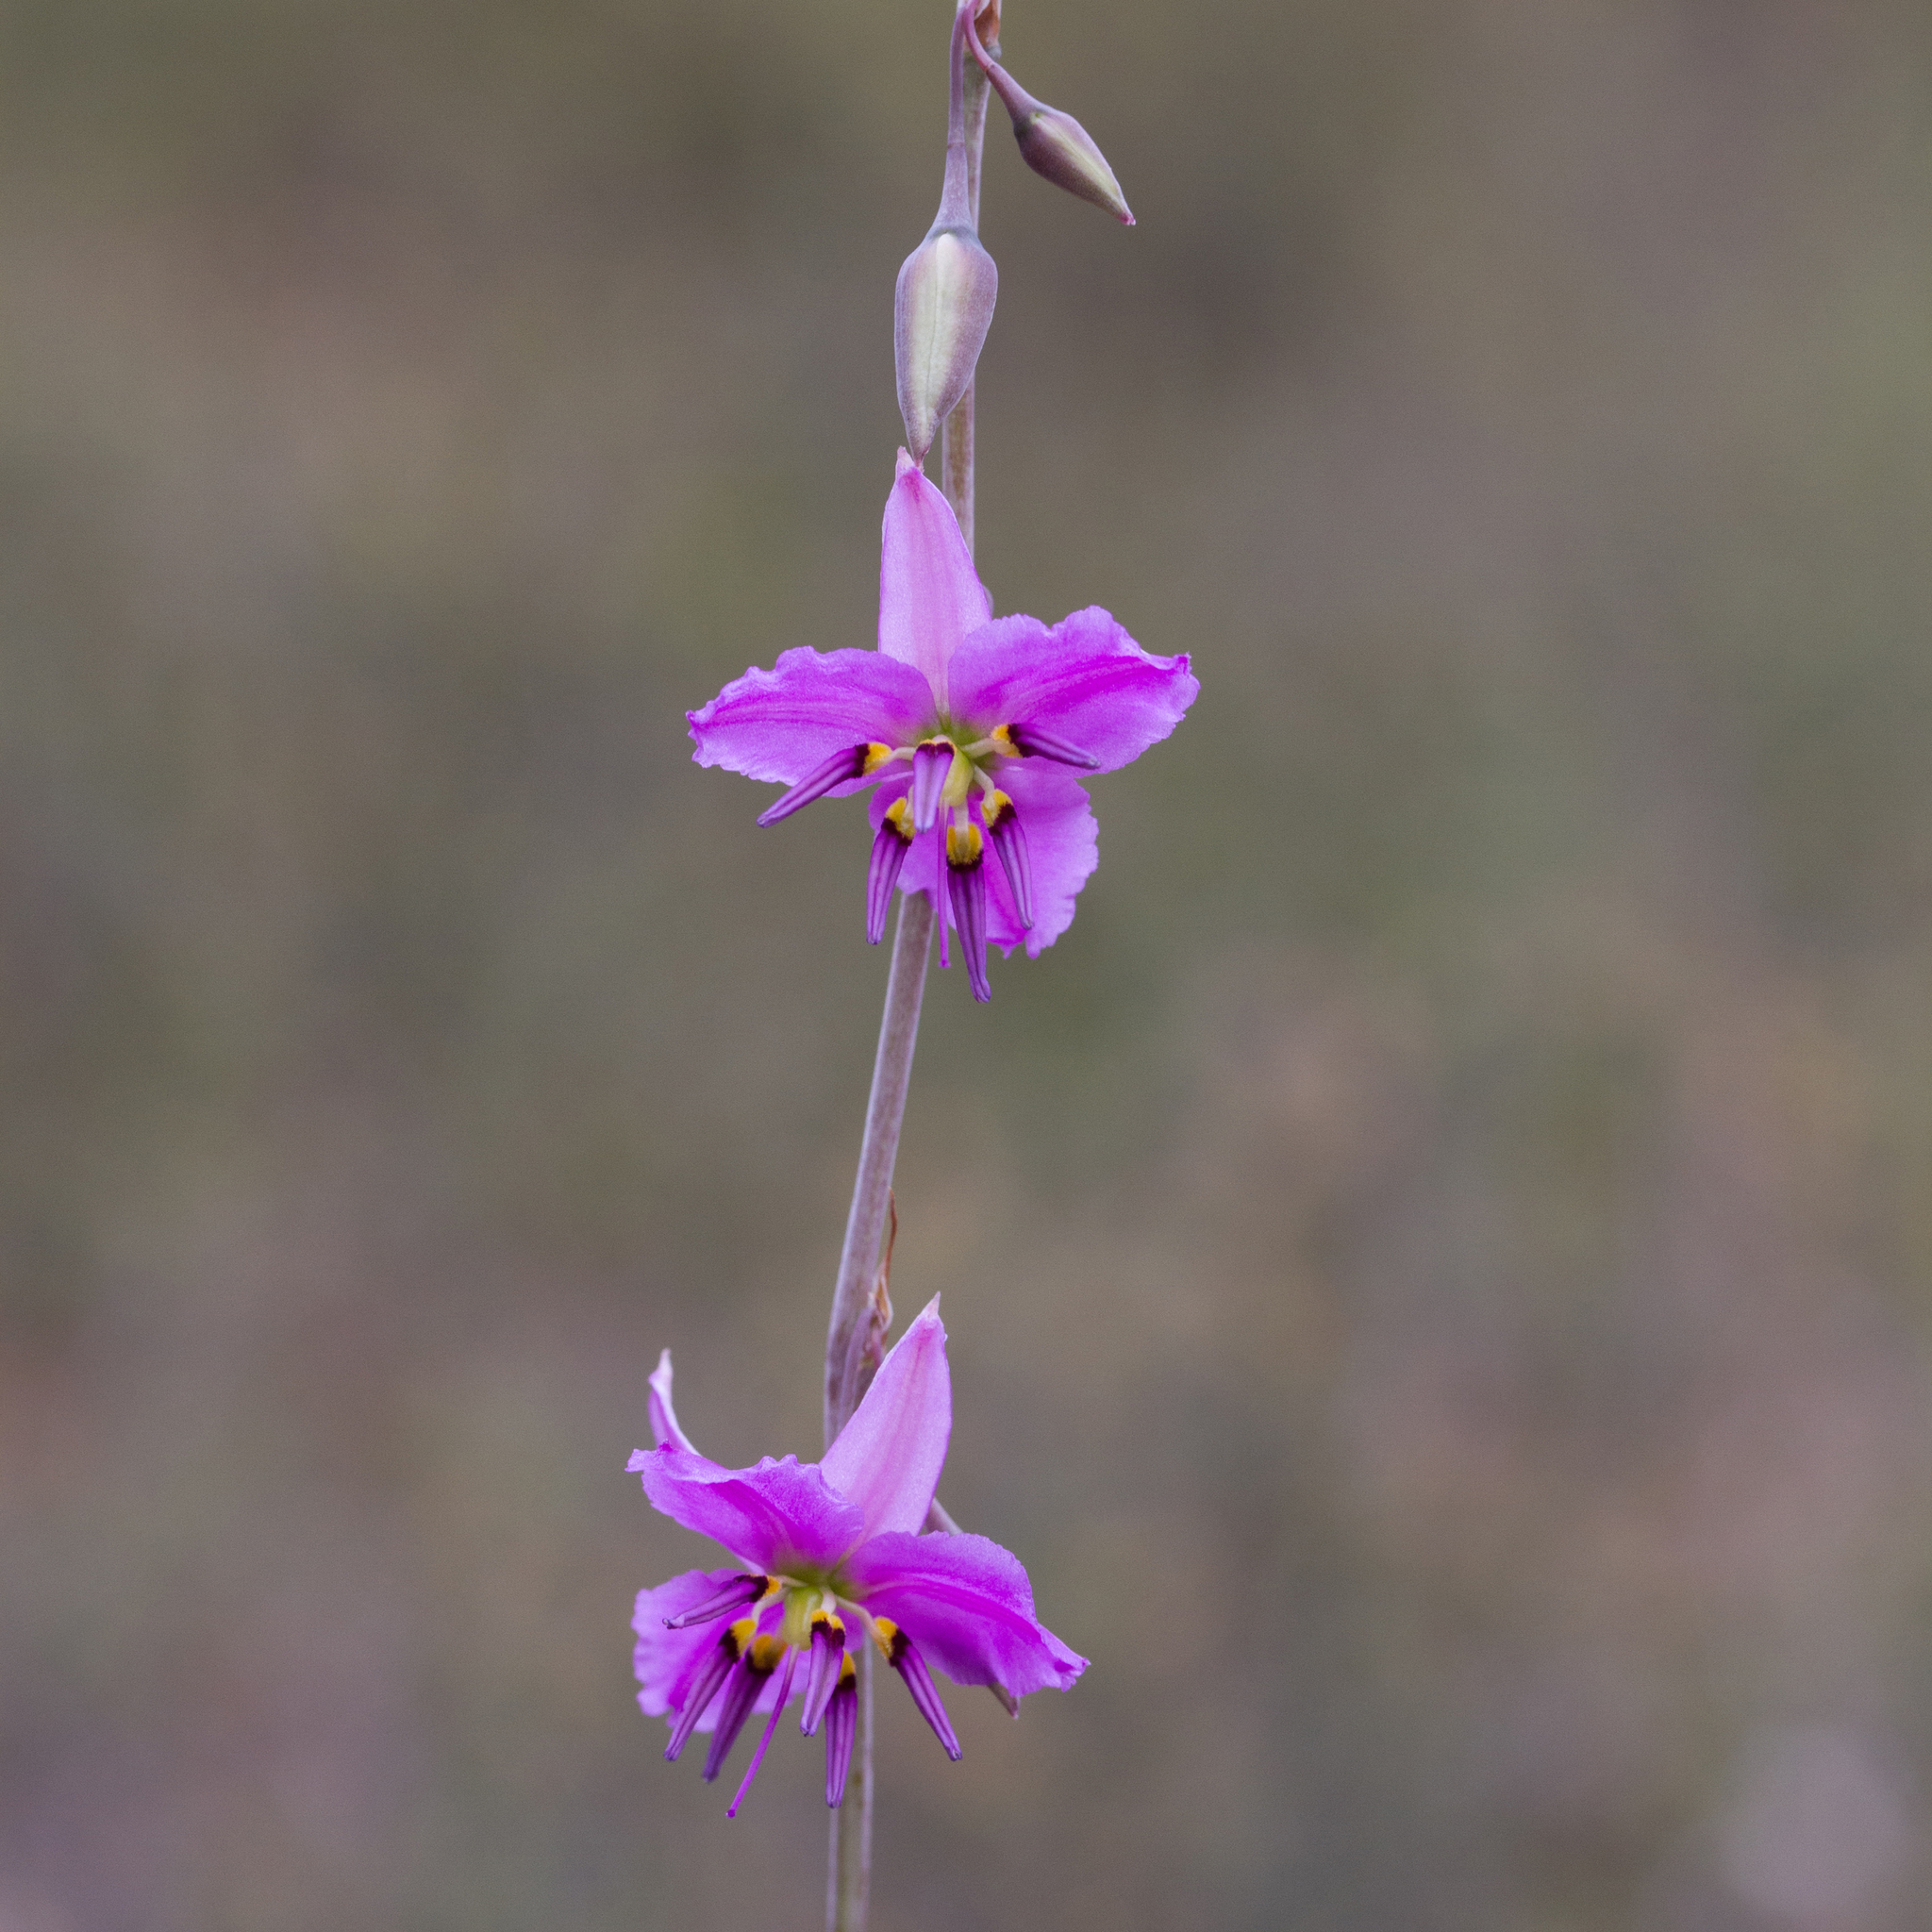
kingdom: Plantae
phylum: Tracheophyta
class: Liliopsida
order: Asparagales
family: Asparagaceae
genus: Dichopogon
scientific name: Dichopogon fimbriatus
